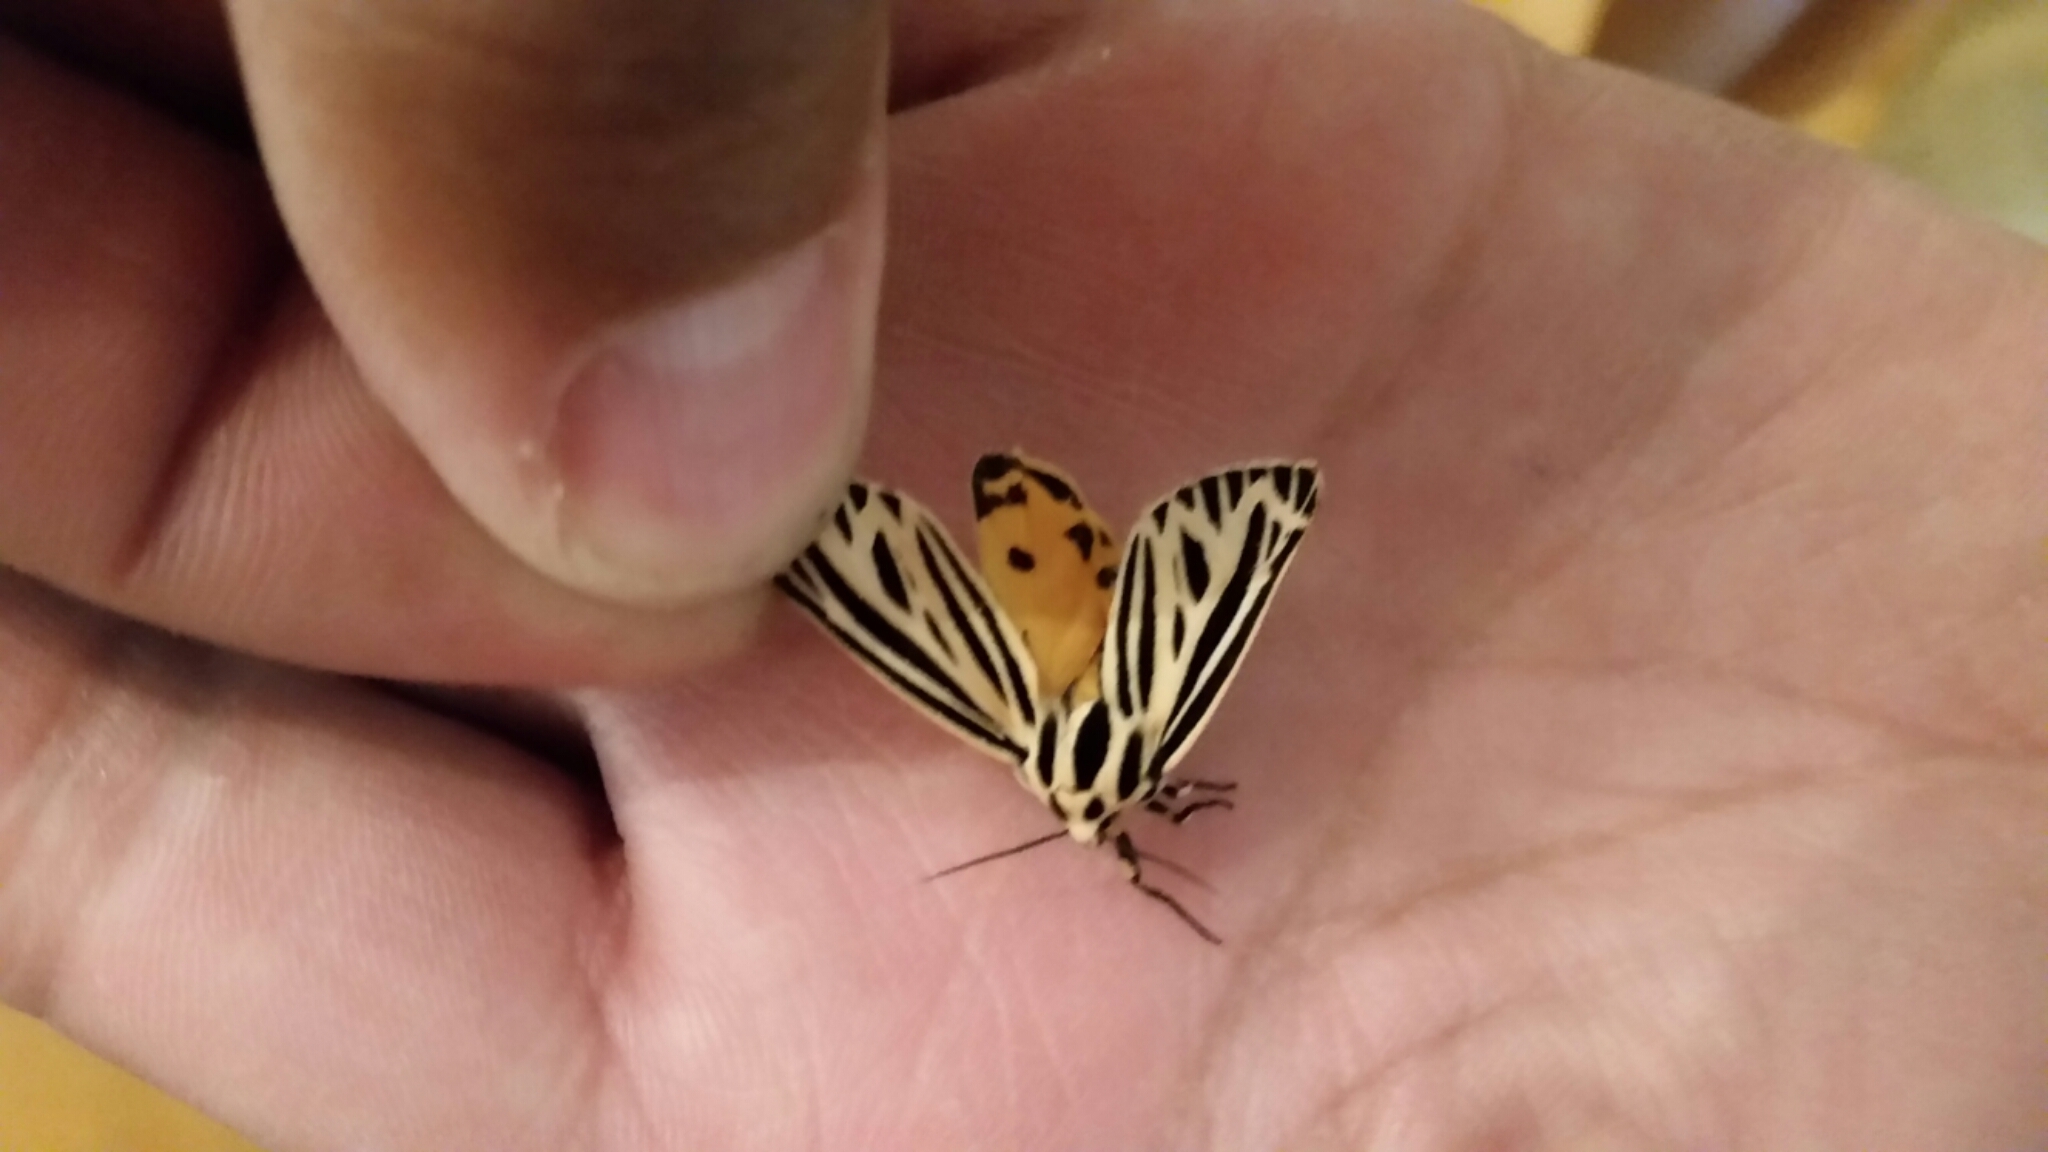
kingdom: Animalia
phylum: Arthropoda
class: Insecta
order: Lepidoptera
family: Erebidae
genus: Grammia
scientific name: Grammia virguncula
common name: Little tiger moth
